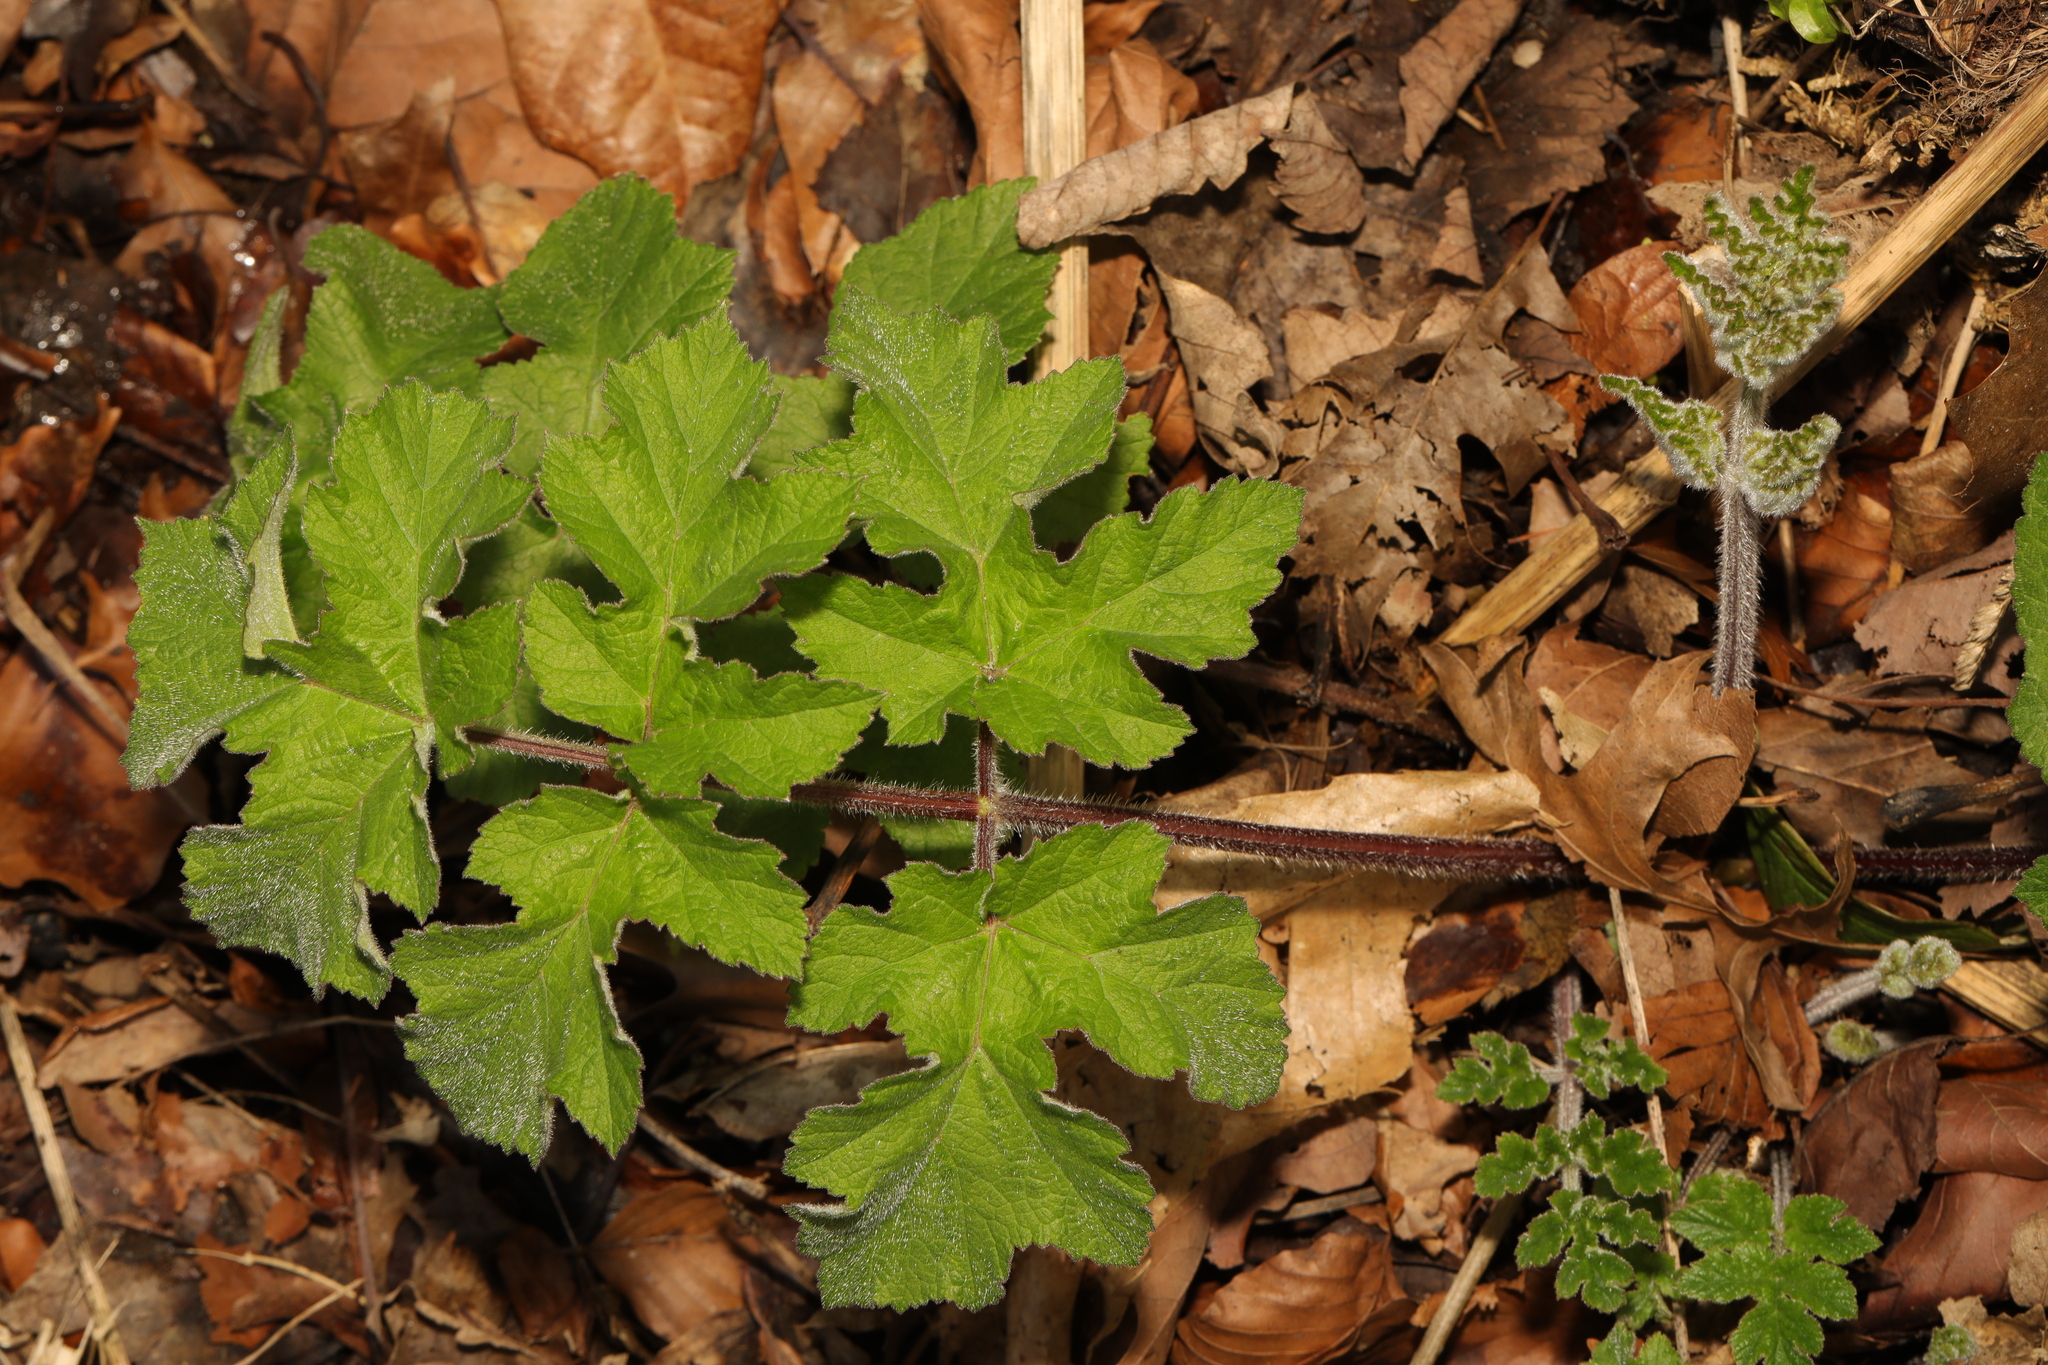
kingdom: Plantae
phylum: Tracheophyta
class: Magnoliopsida
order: Apiales
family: Apiaceae
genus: Heracleum
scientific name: Heracleum sphondylium
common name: Hogweed
